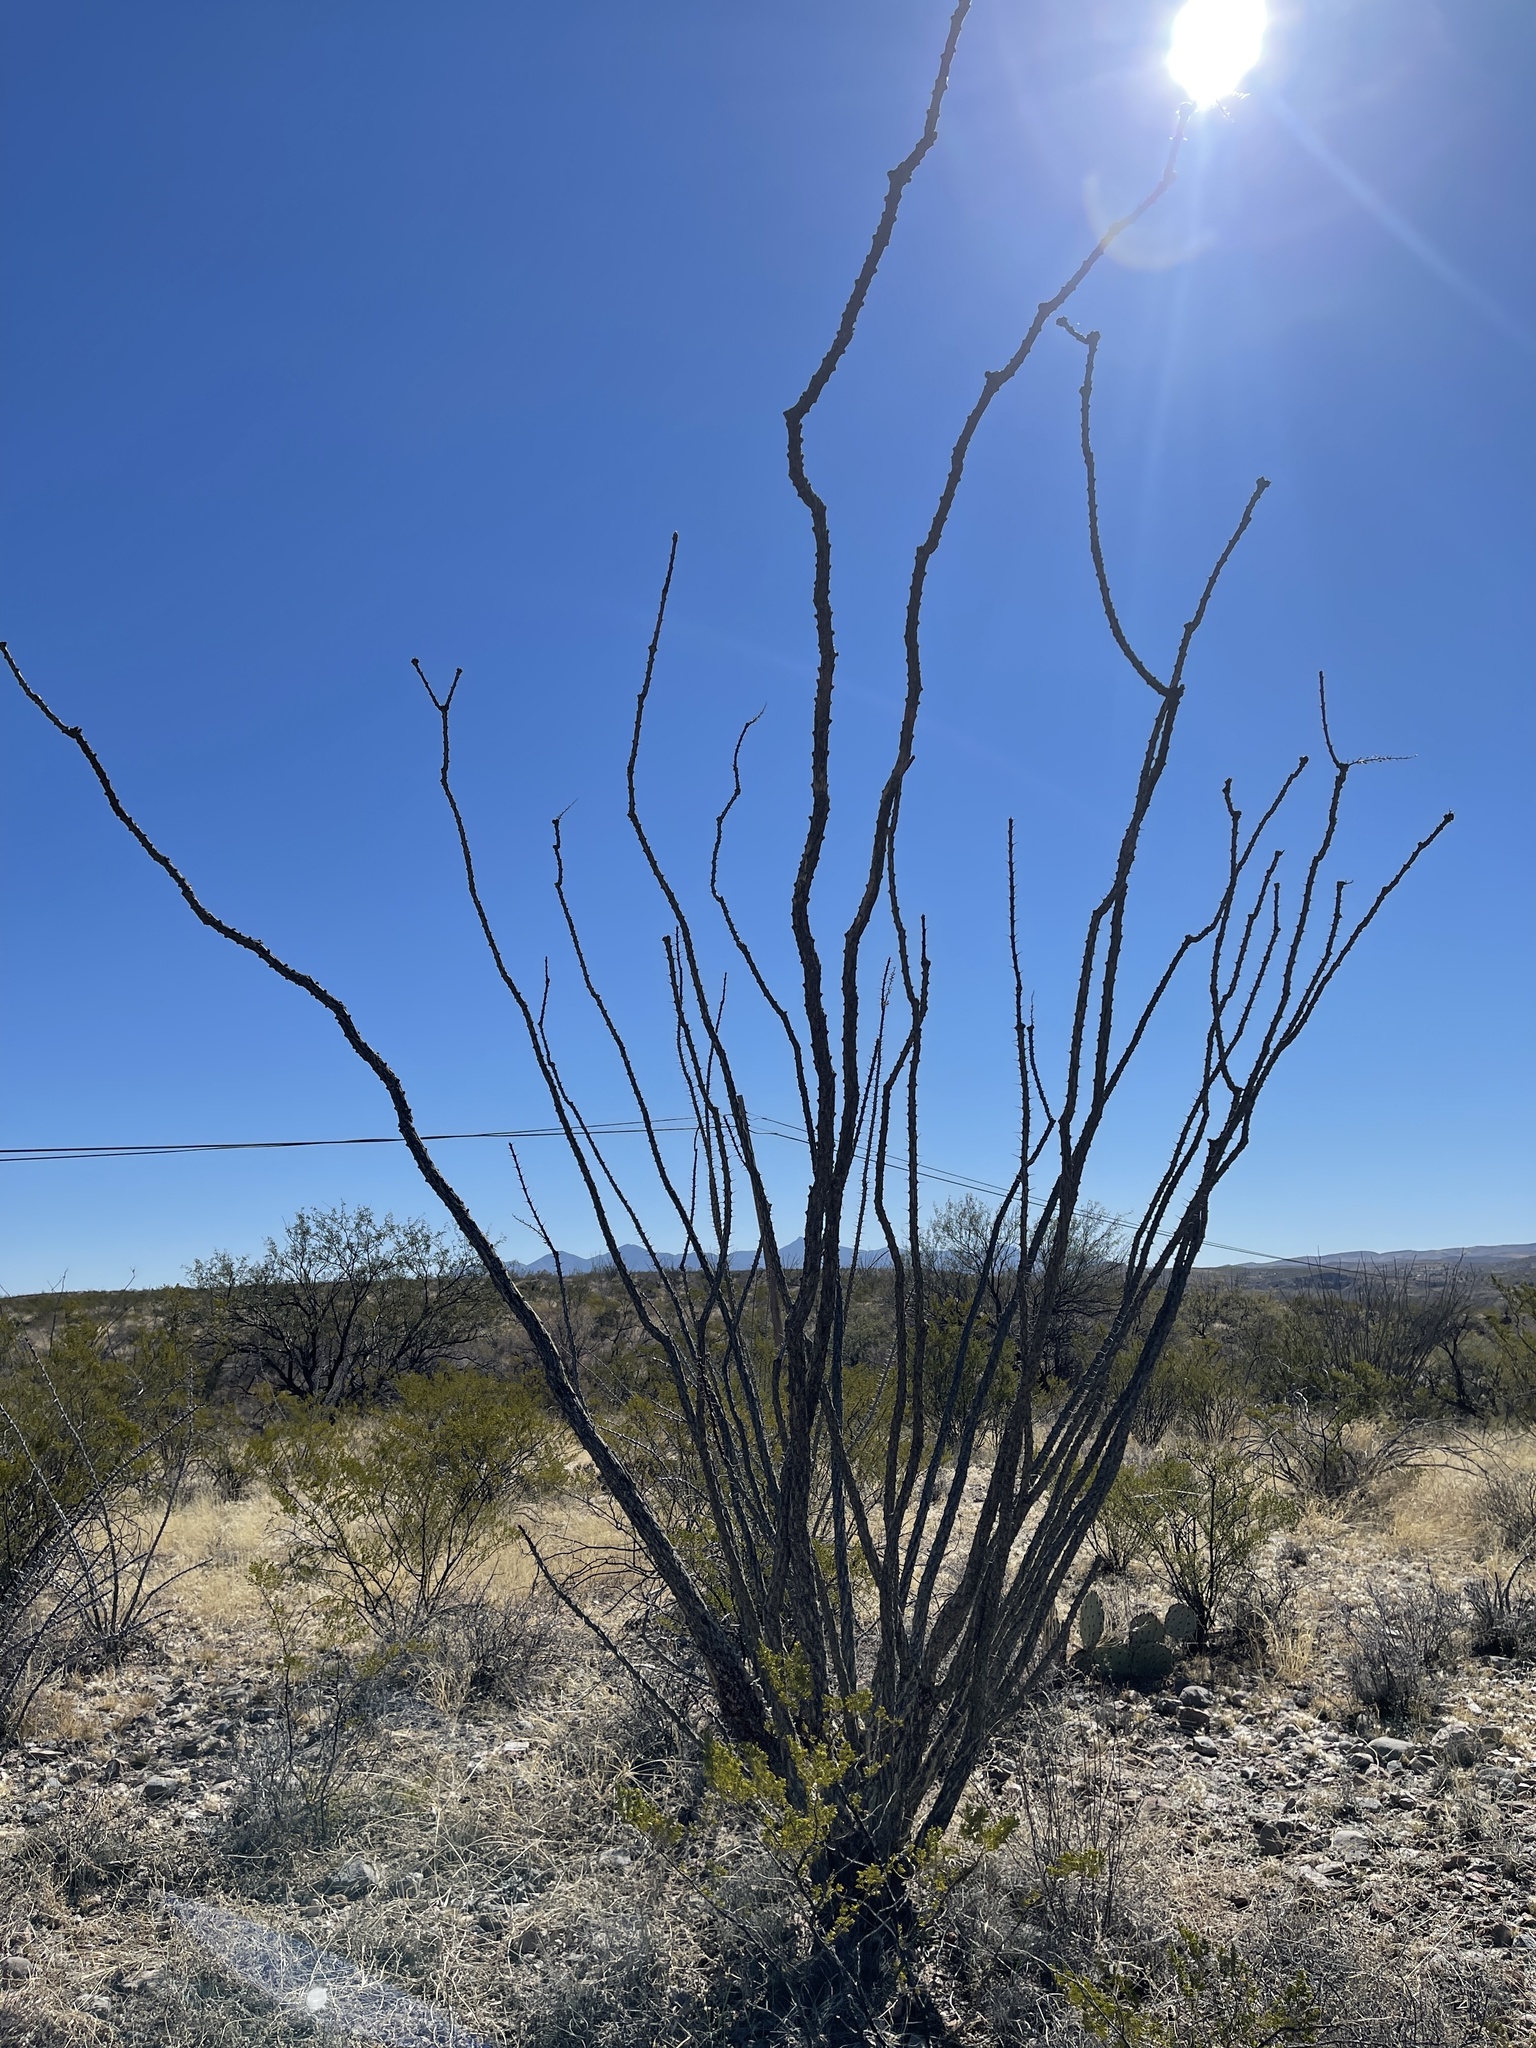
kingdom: Plantae
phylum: Tracheophyta
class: Magnoliopsida
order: Ericales
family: Fouquieriaceae
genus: Fouquieria
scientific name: Fouquieria splendens
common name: Vine-cactus
